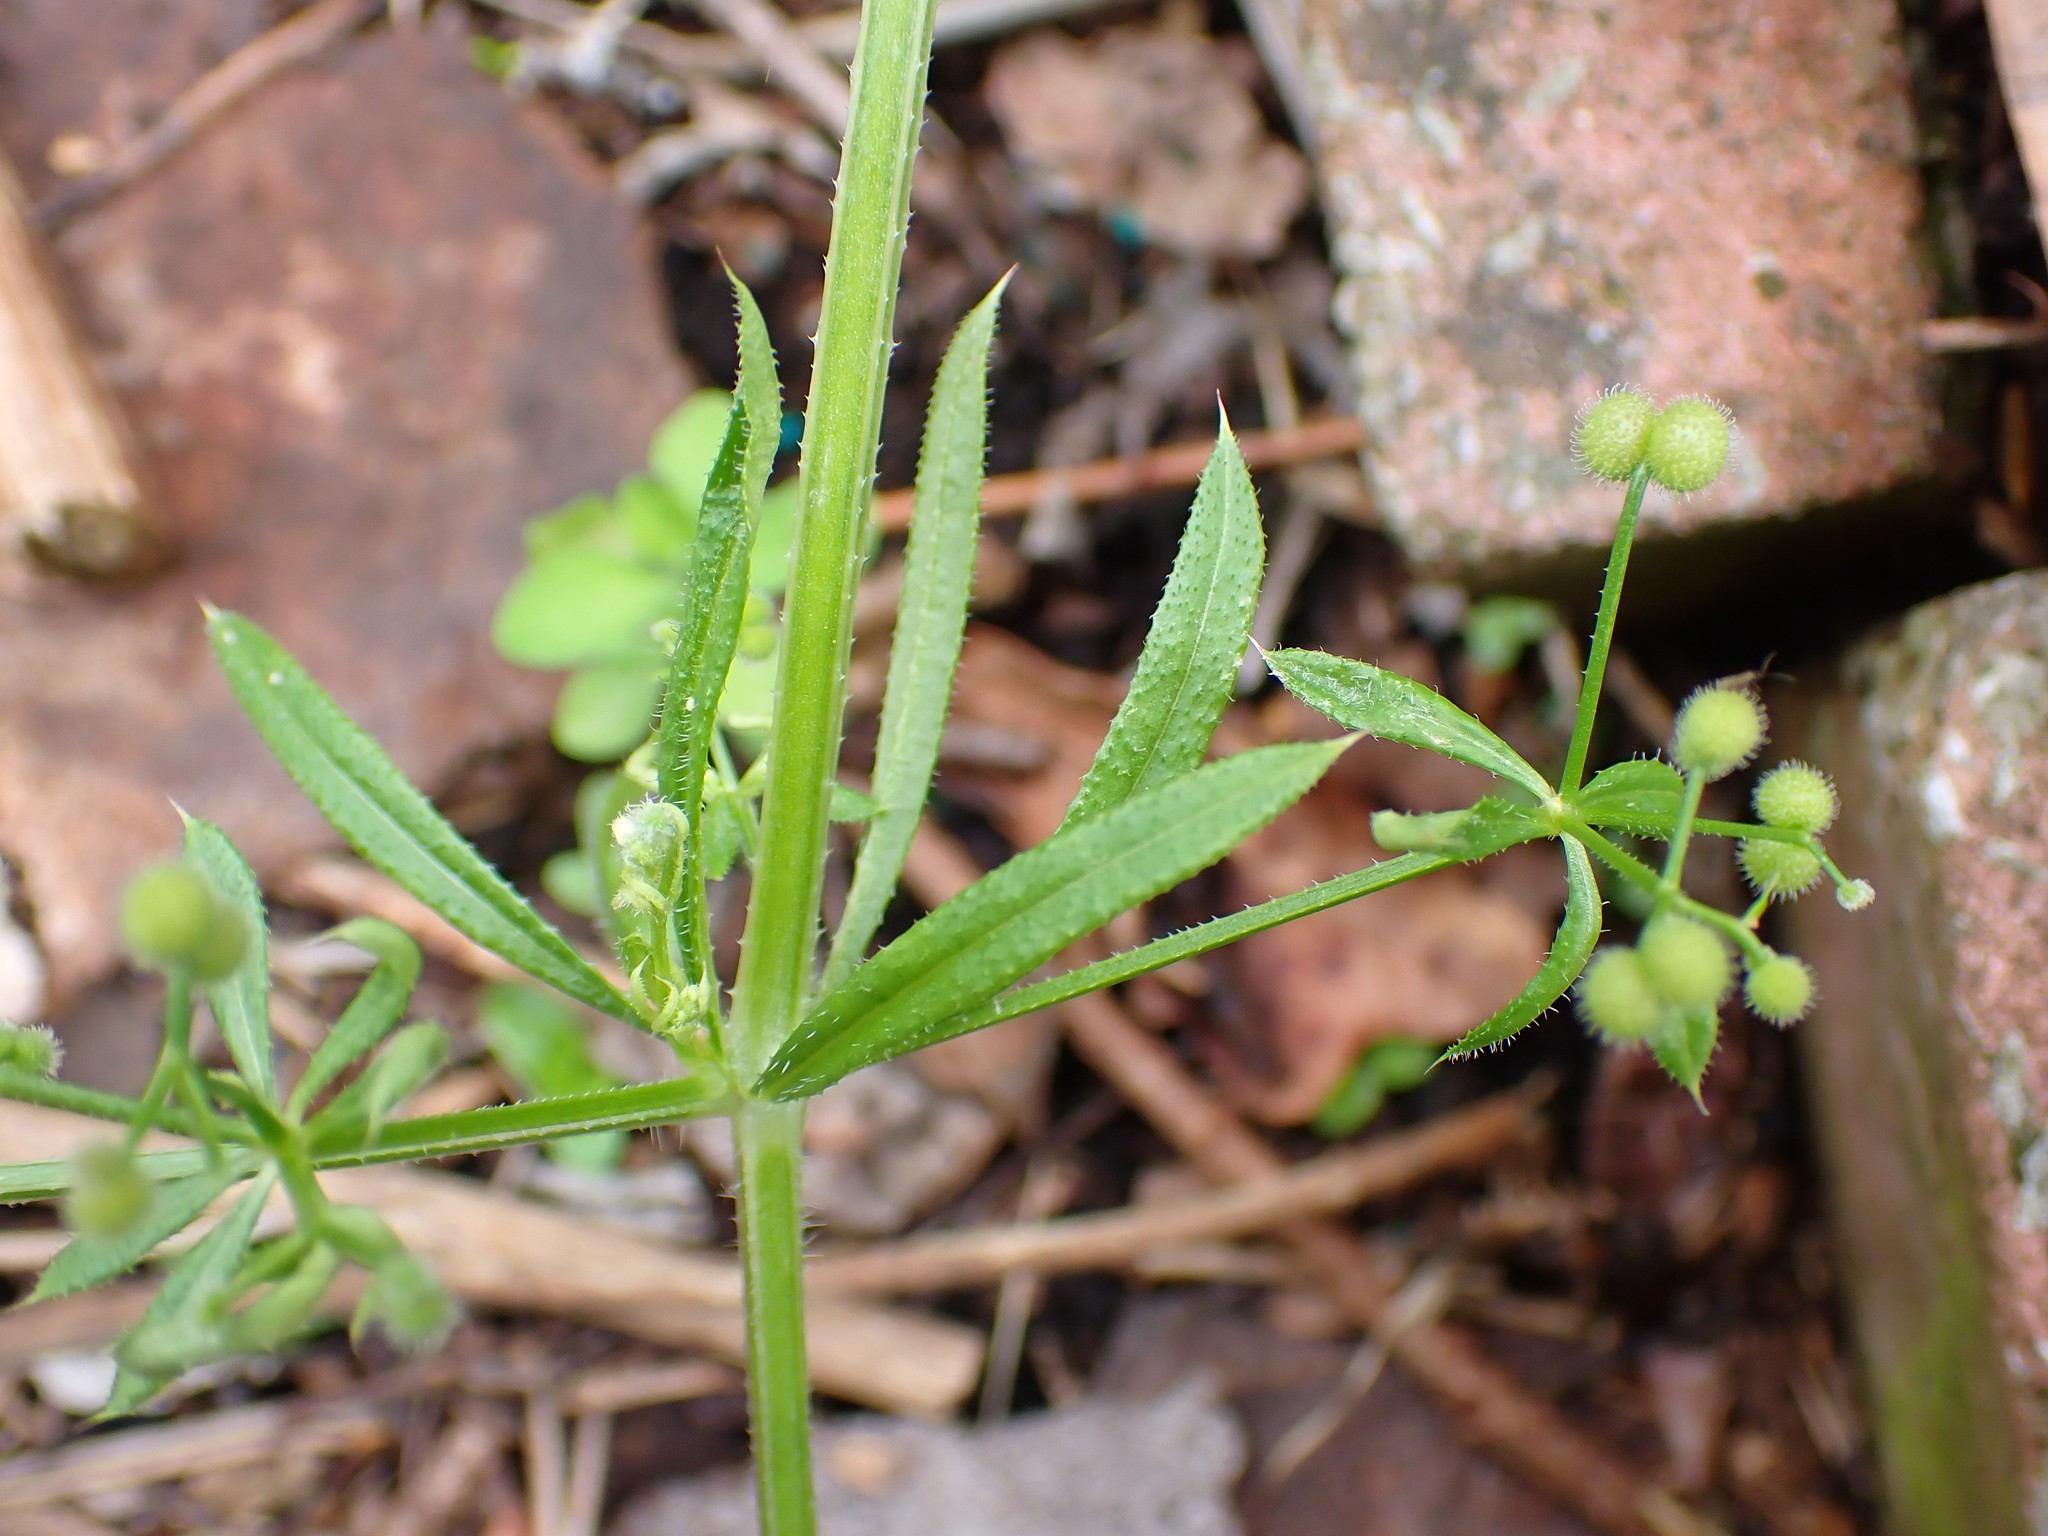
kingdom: Plantae
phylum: Tracheophyta
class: Magnoliopsida
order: Gentianales
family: Rubiaceae
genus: Galium
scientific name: Galium aparine
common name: Cleavers
